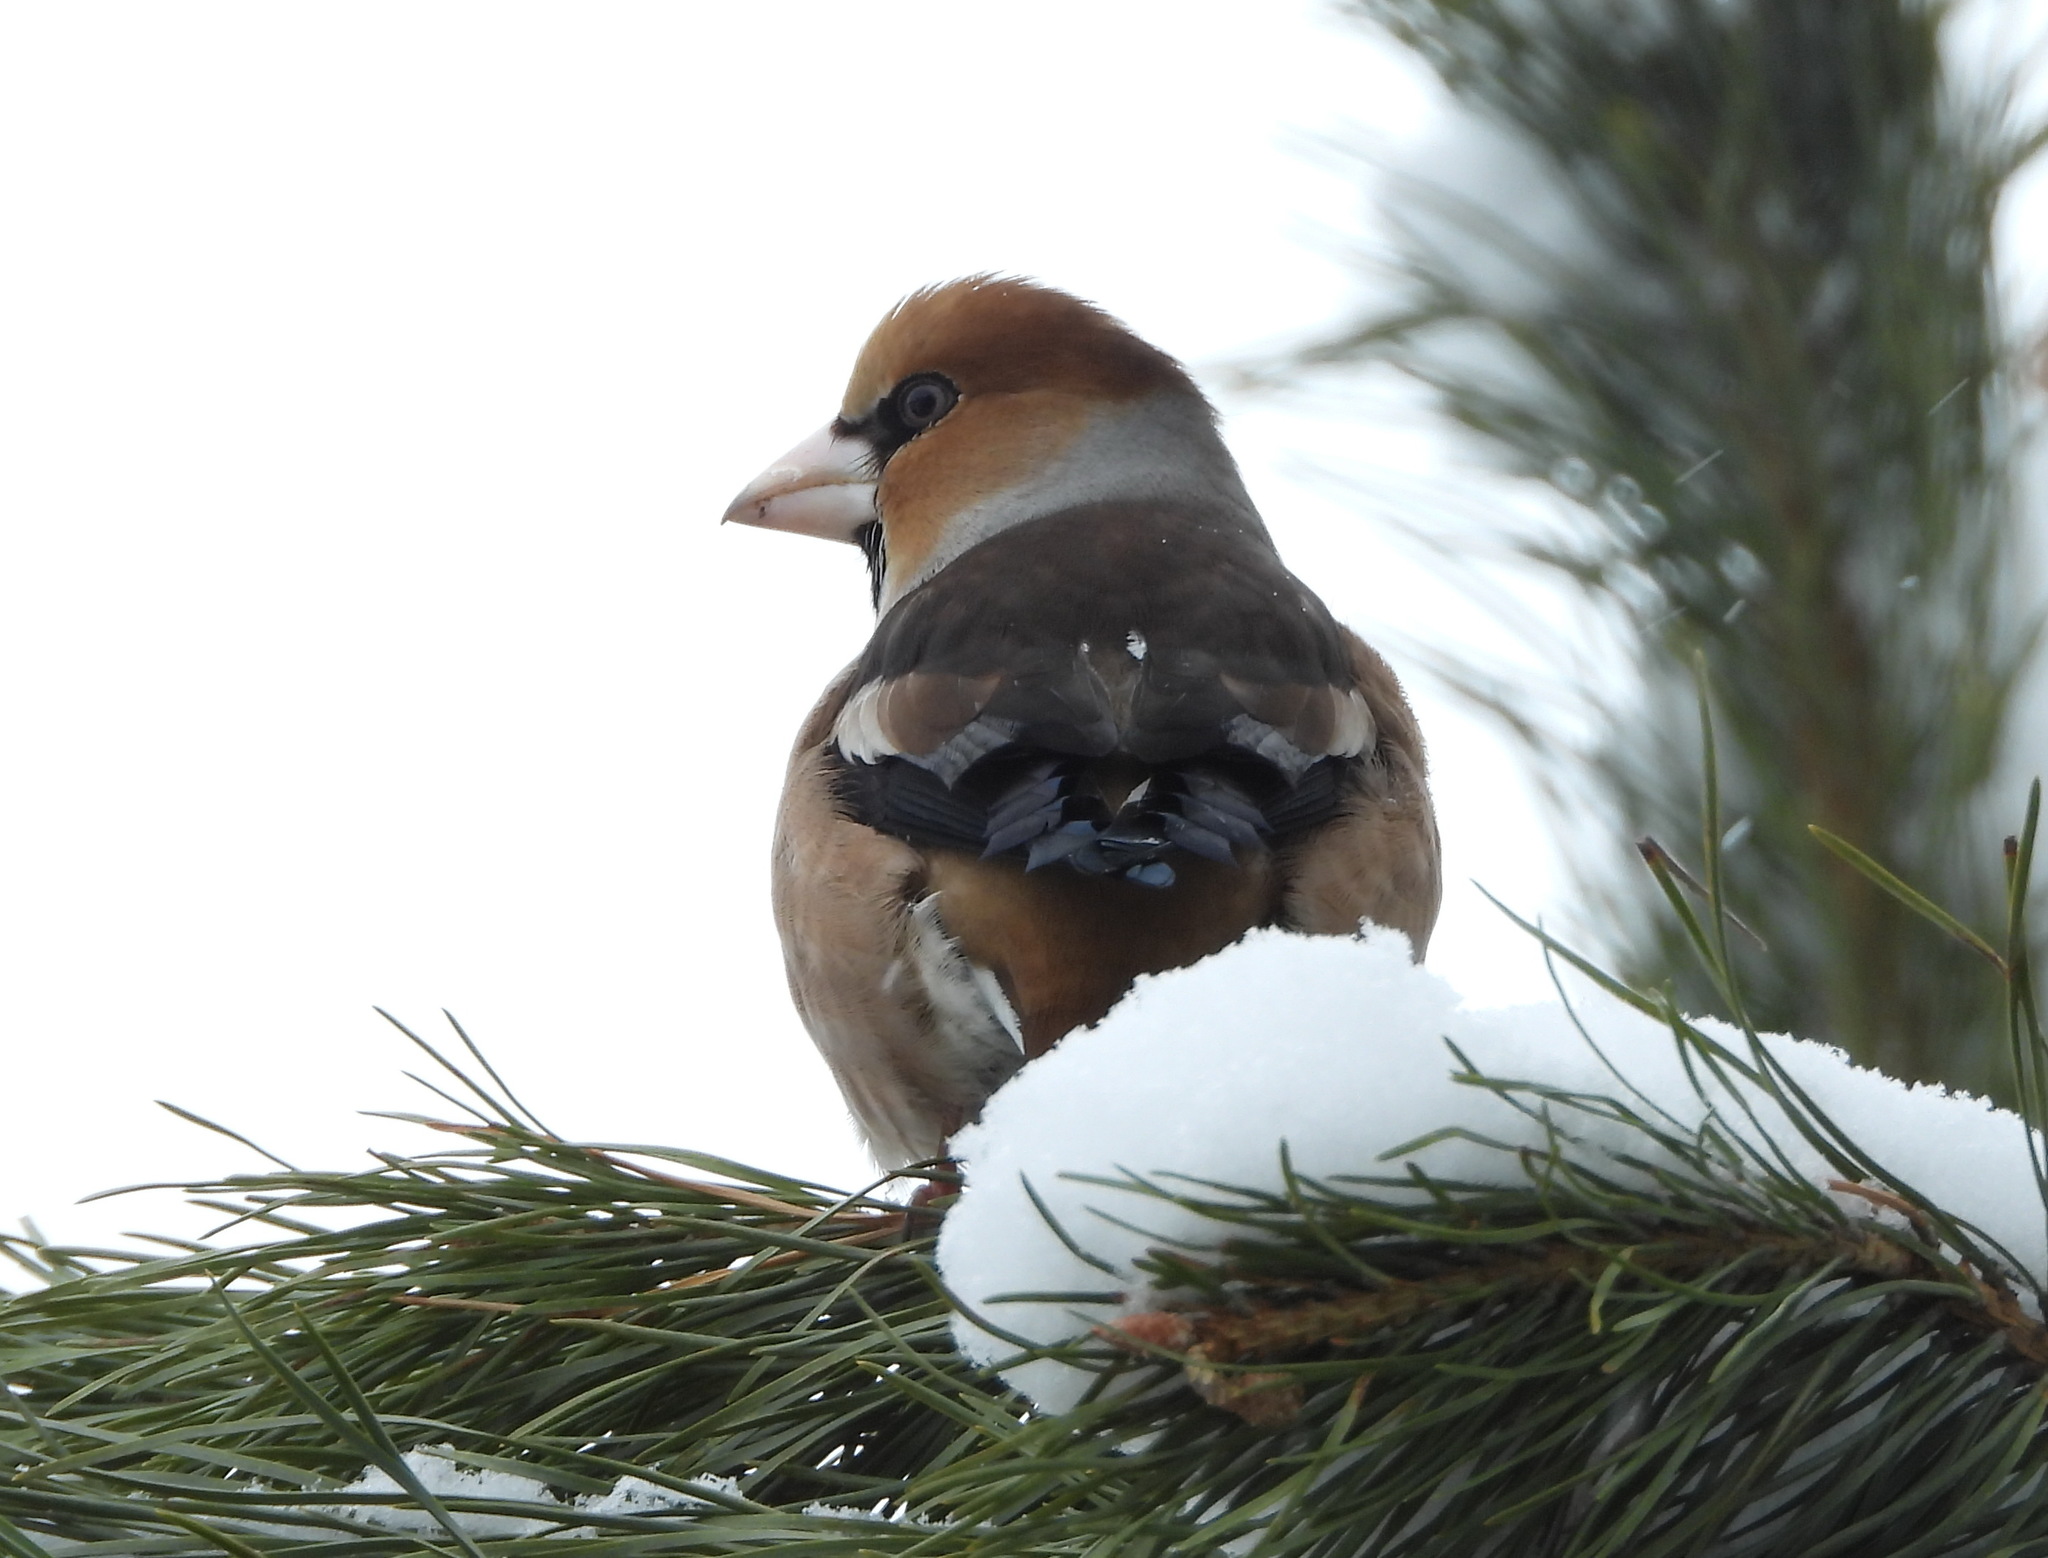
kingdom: Animalia
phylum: Chordata
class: Aves
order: Passeriformes
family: Fringillidae
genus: Coccothraustes
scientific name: Coccothraustes coccothraustes
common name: Hawfinch
